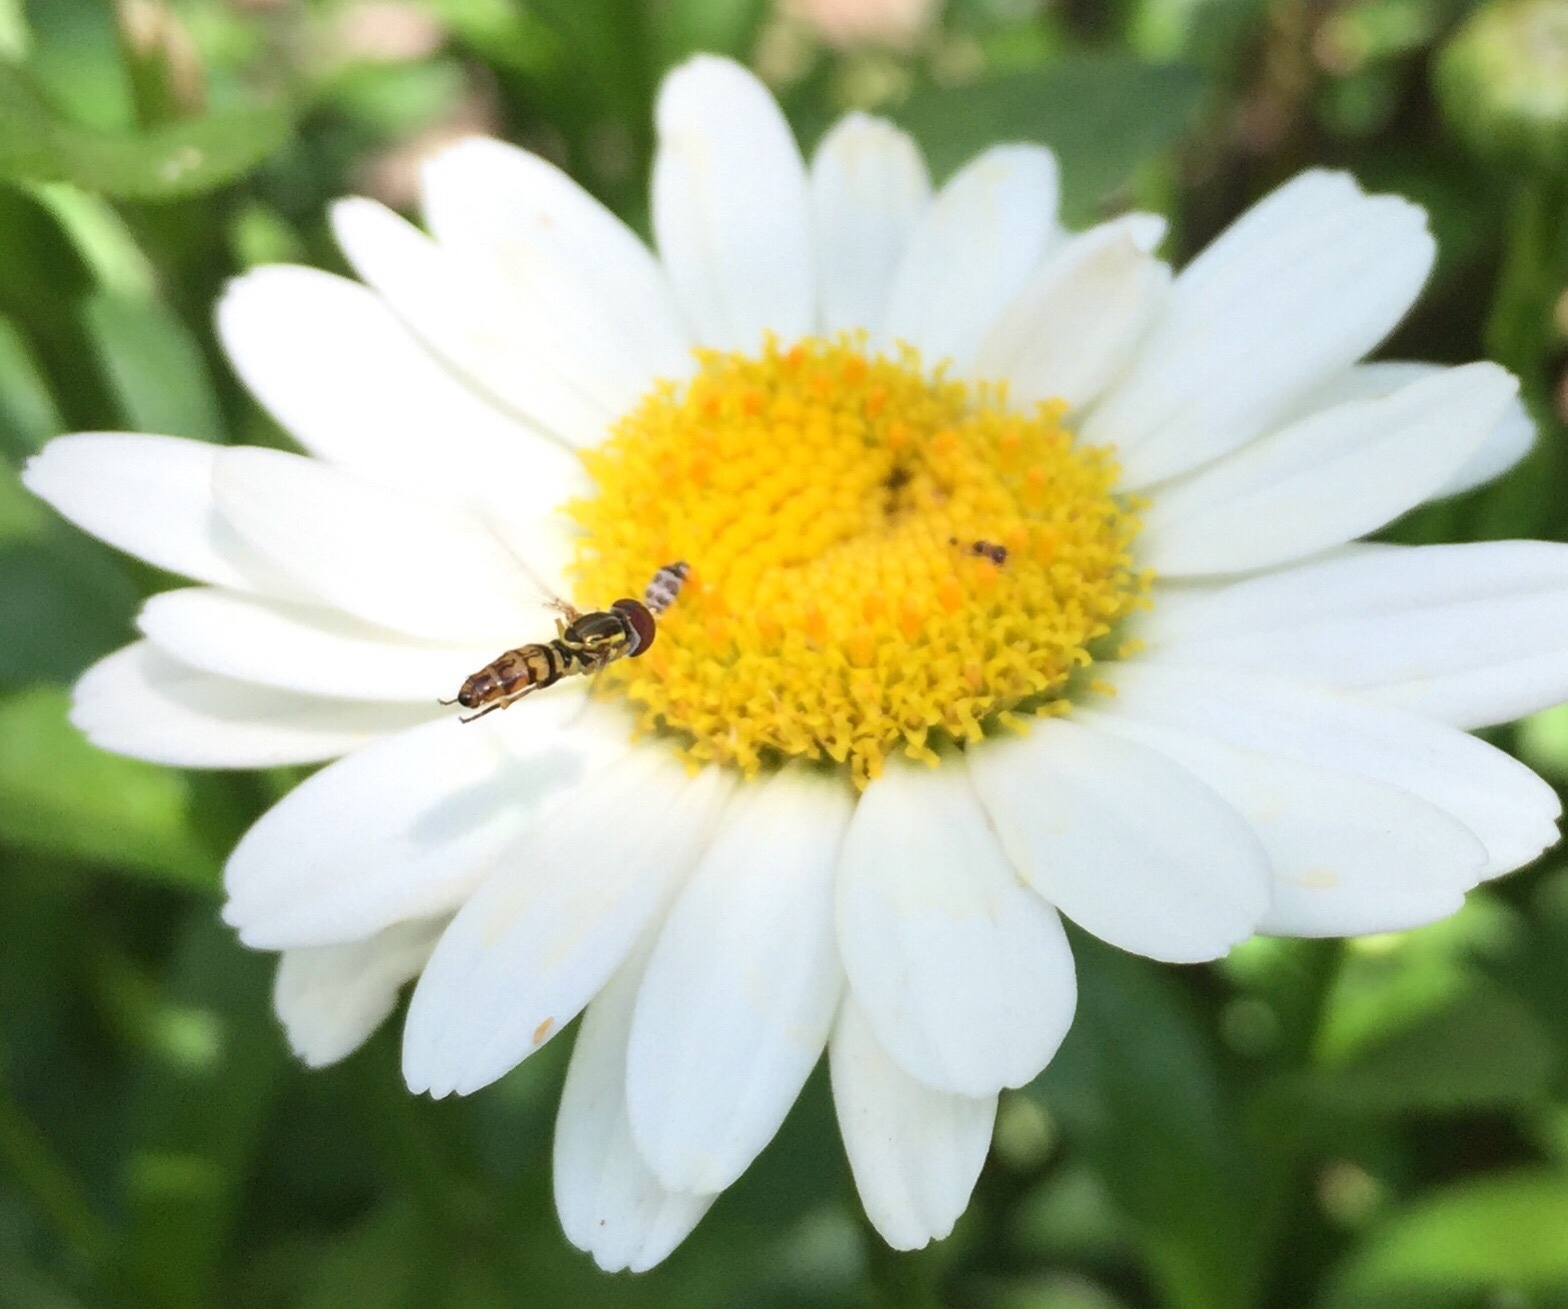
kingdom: Animalia
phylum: Arthropoda
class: Insecta
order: Diptera
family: Syrphidae
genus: Toxomerus
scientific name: Toxomerus geminatus
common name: Eastern calligrapher
